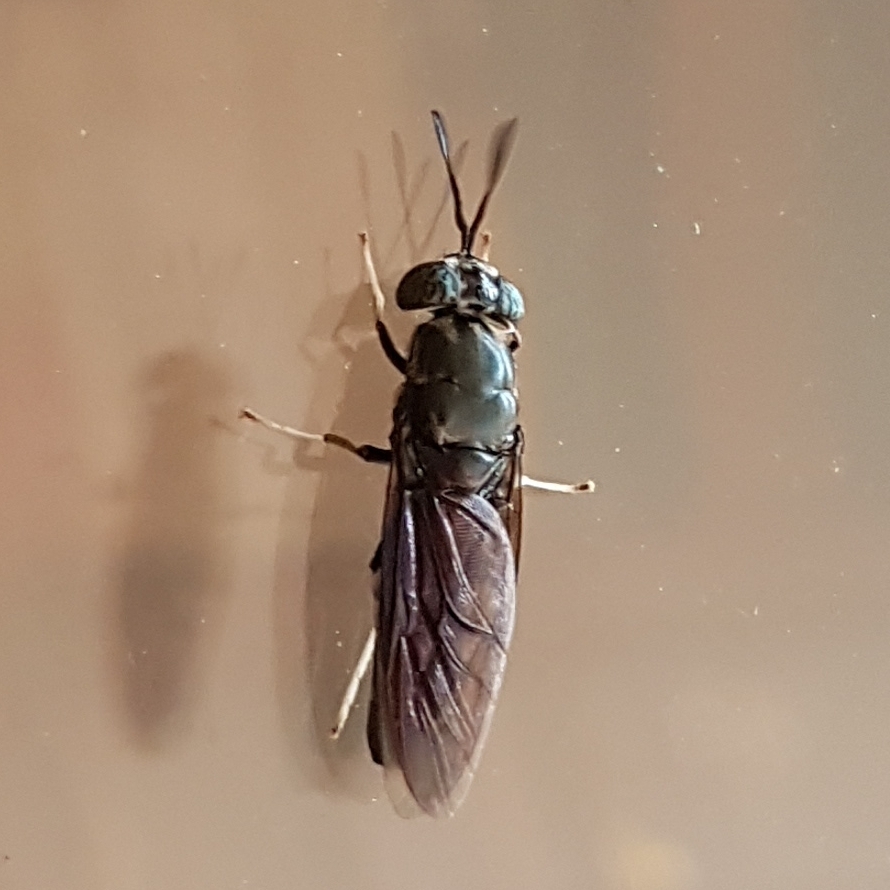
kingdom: Animalia
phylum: Arthropoda
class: Insecta
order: Diptera
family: Stratiomyidae
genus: Hermetia
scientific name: Hermetia illucens
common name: Black soldier fly
